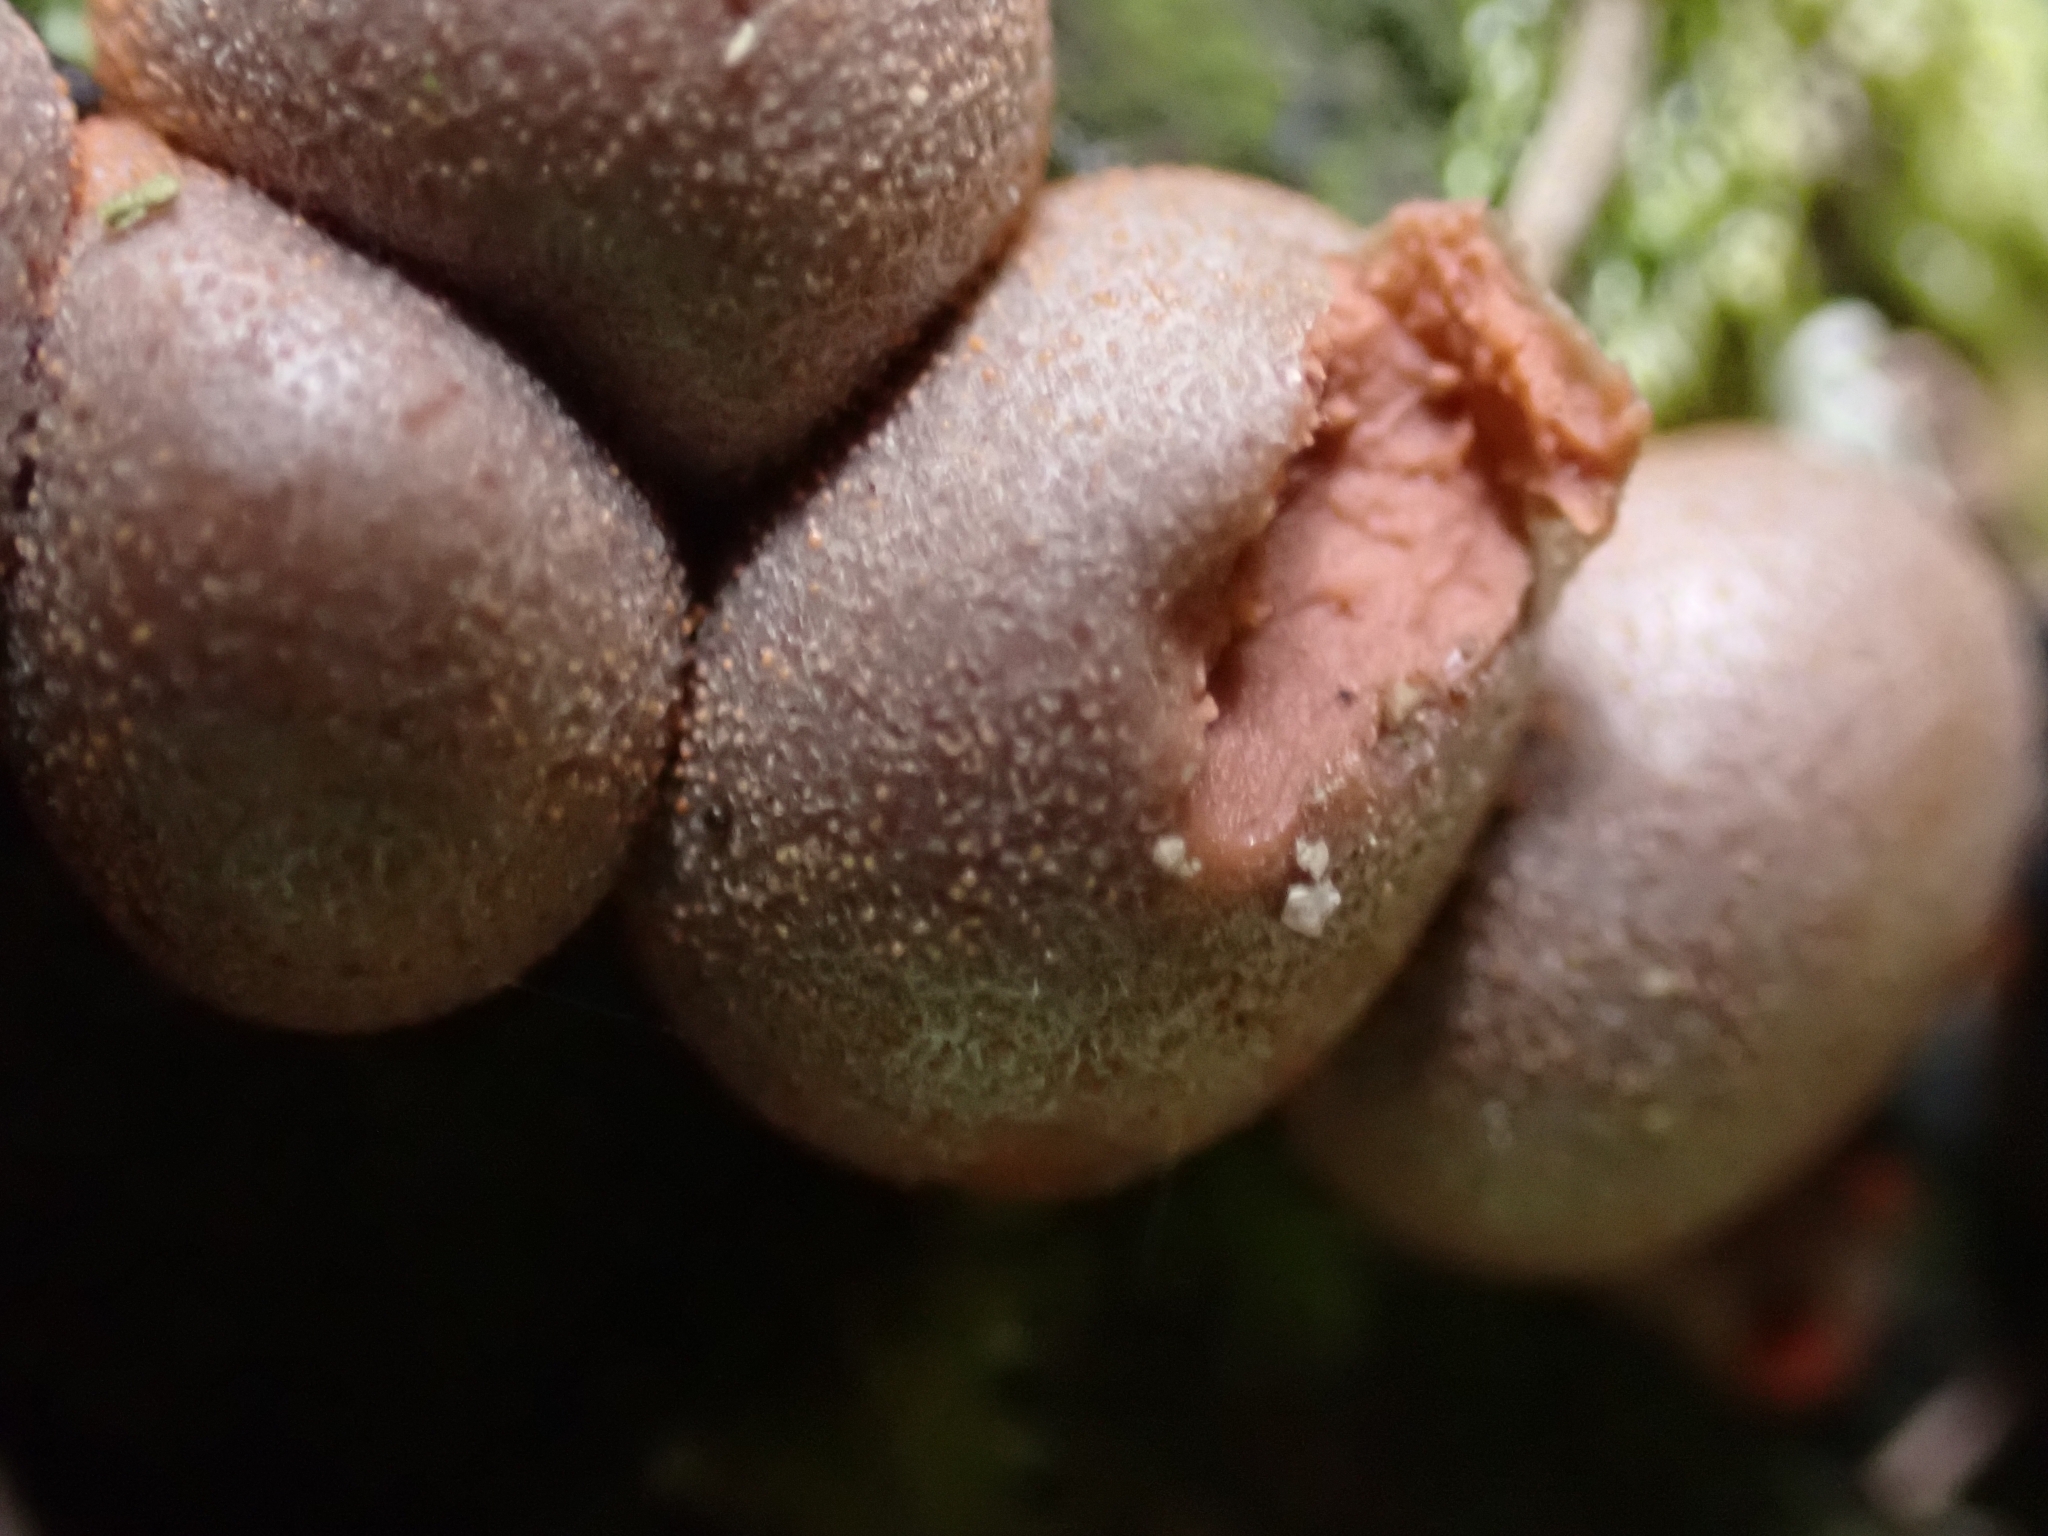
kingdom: Protozoa
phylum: Mycetozoa
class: Myxomycetes
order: Cribrariales
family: Tubiferaceae
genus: Lycogala
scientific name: Lycogala epidendrum
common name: Wolf's milk
